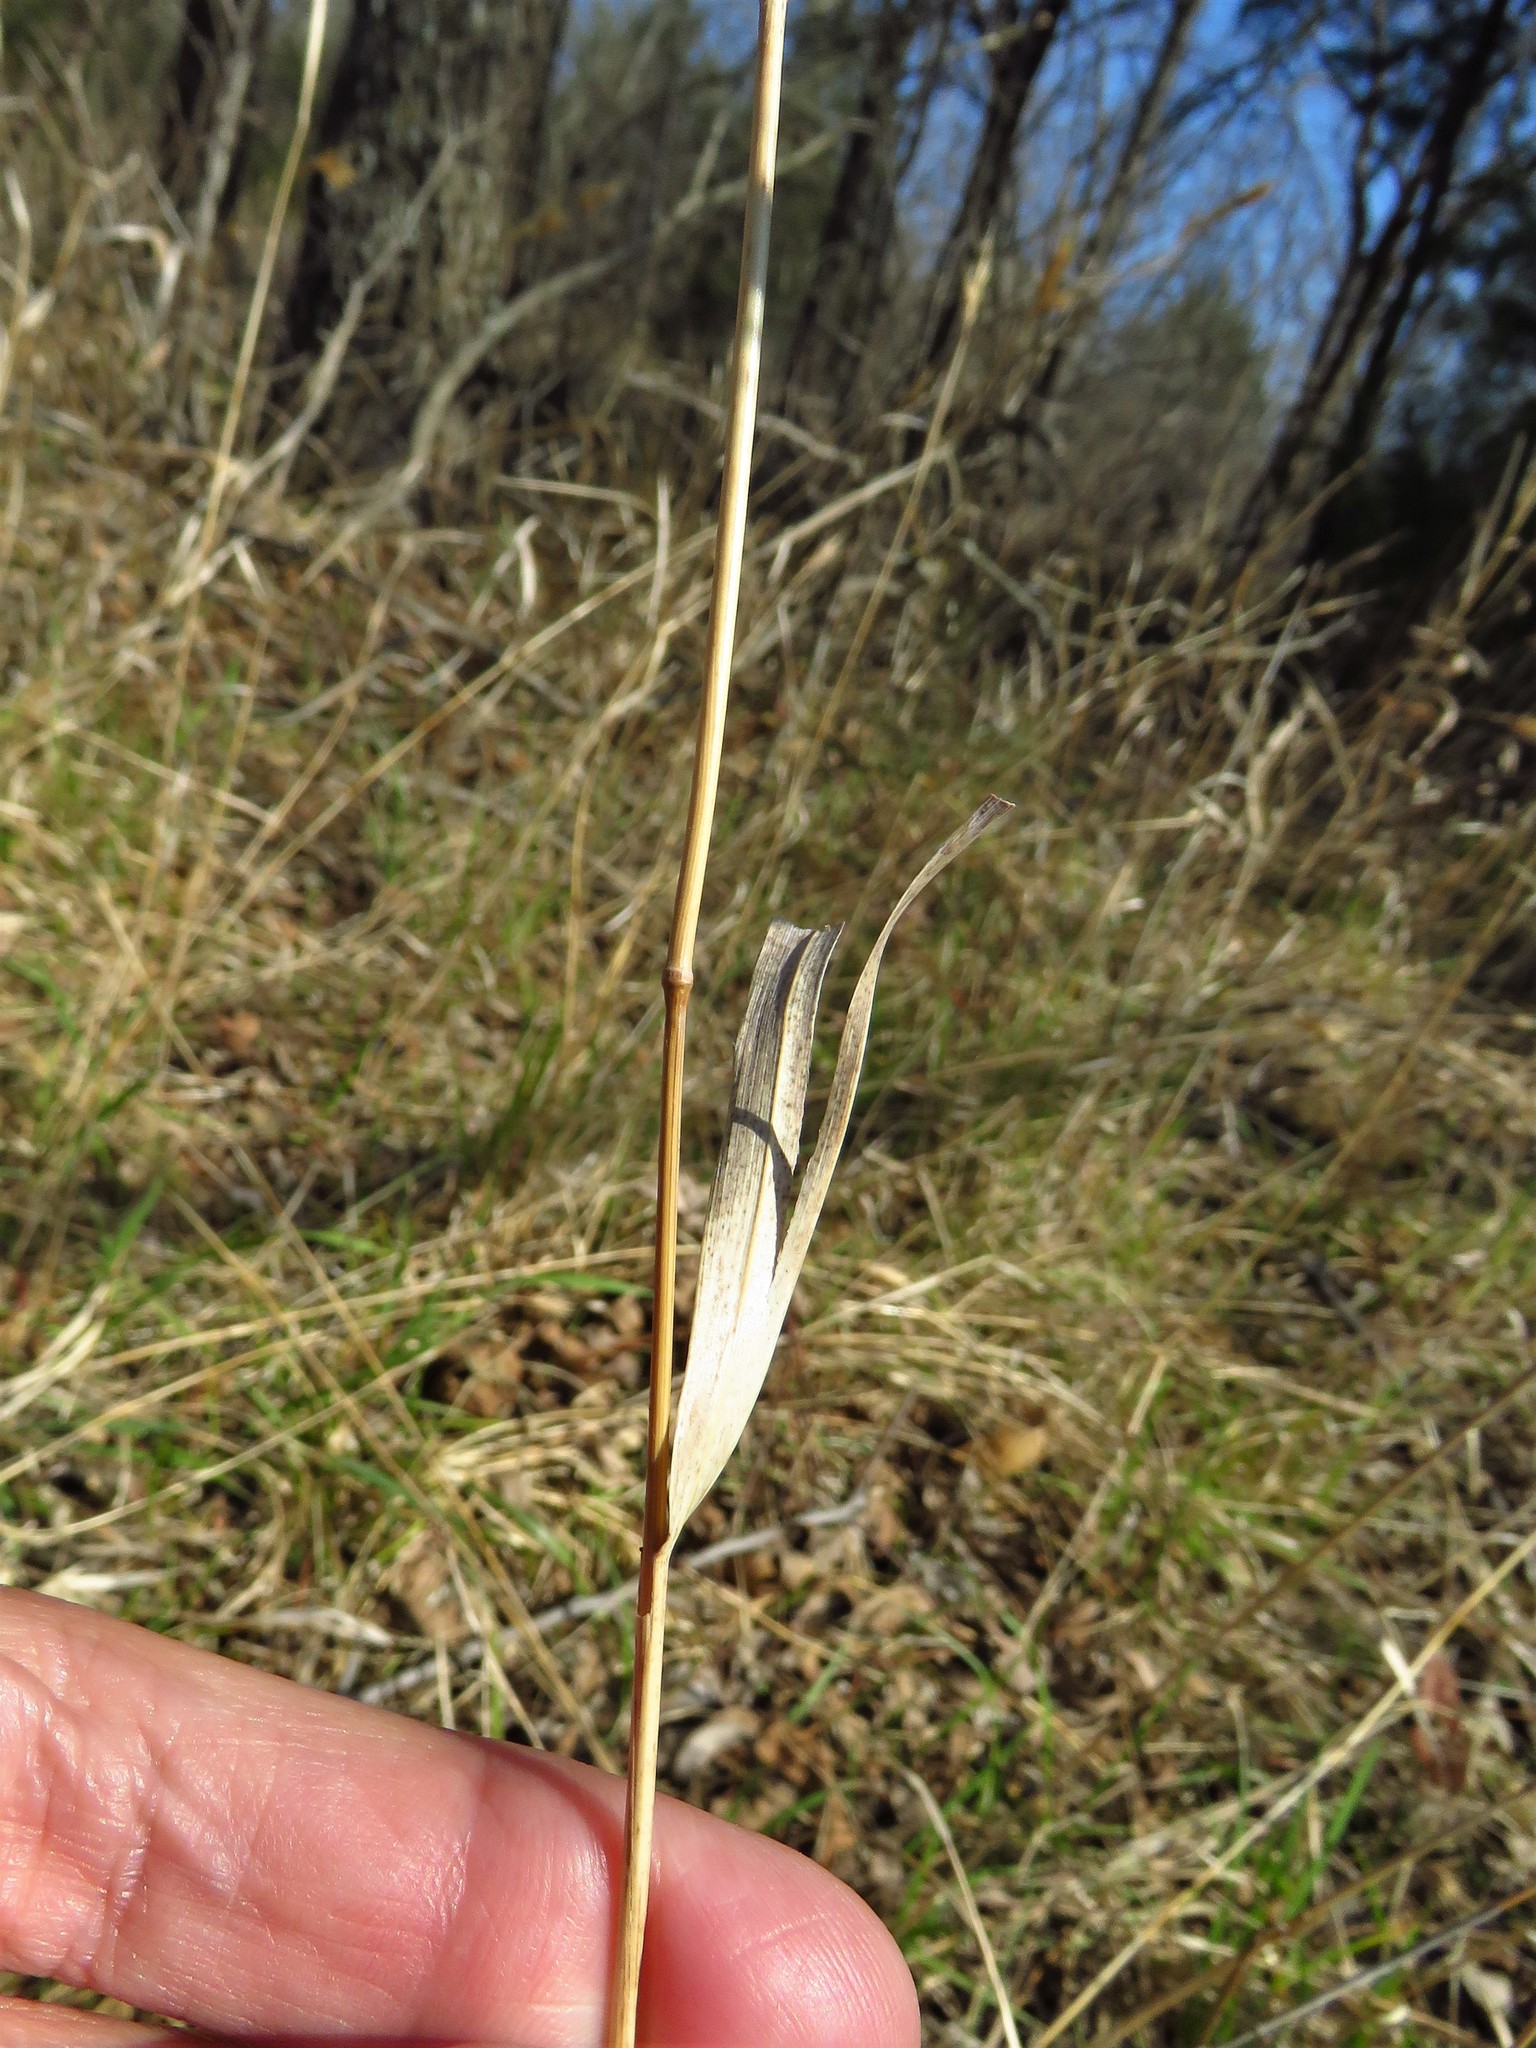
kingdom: Plantae
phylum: Tracheophyta
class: Liliopsida
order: Poales
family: Poaceae
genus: Elymus
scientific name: Elymus virginicus
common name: Common eastern wildrye
